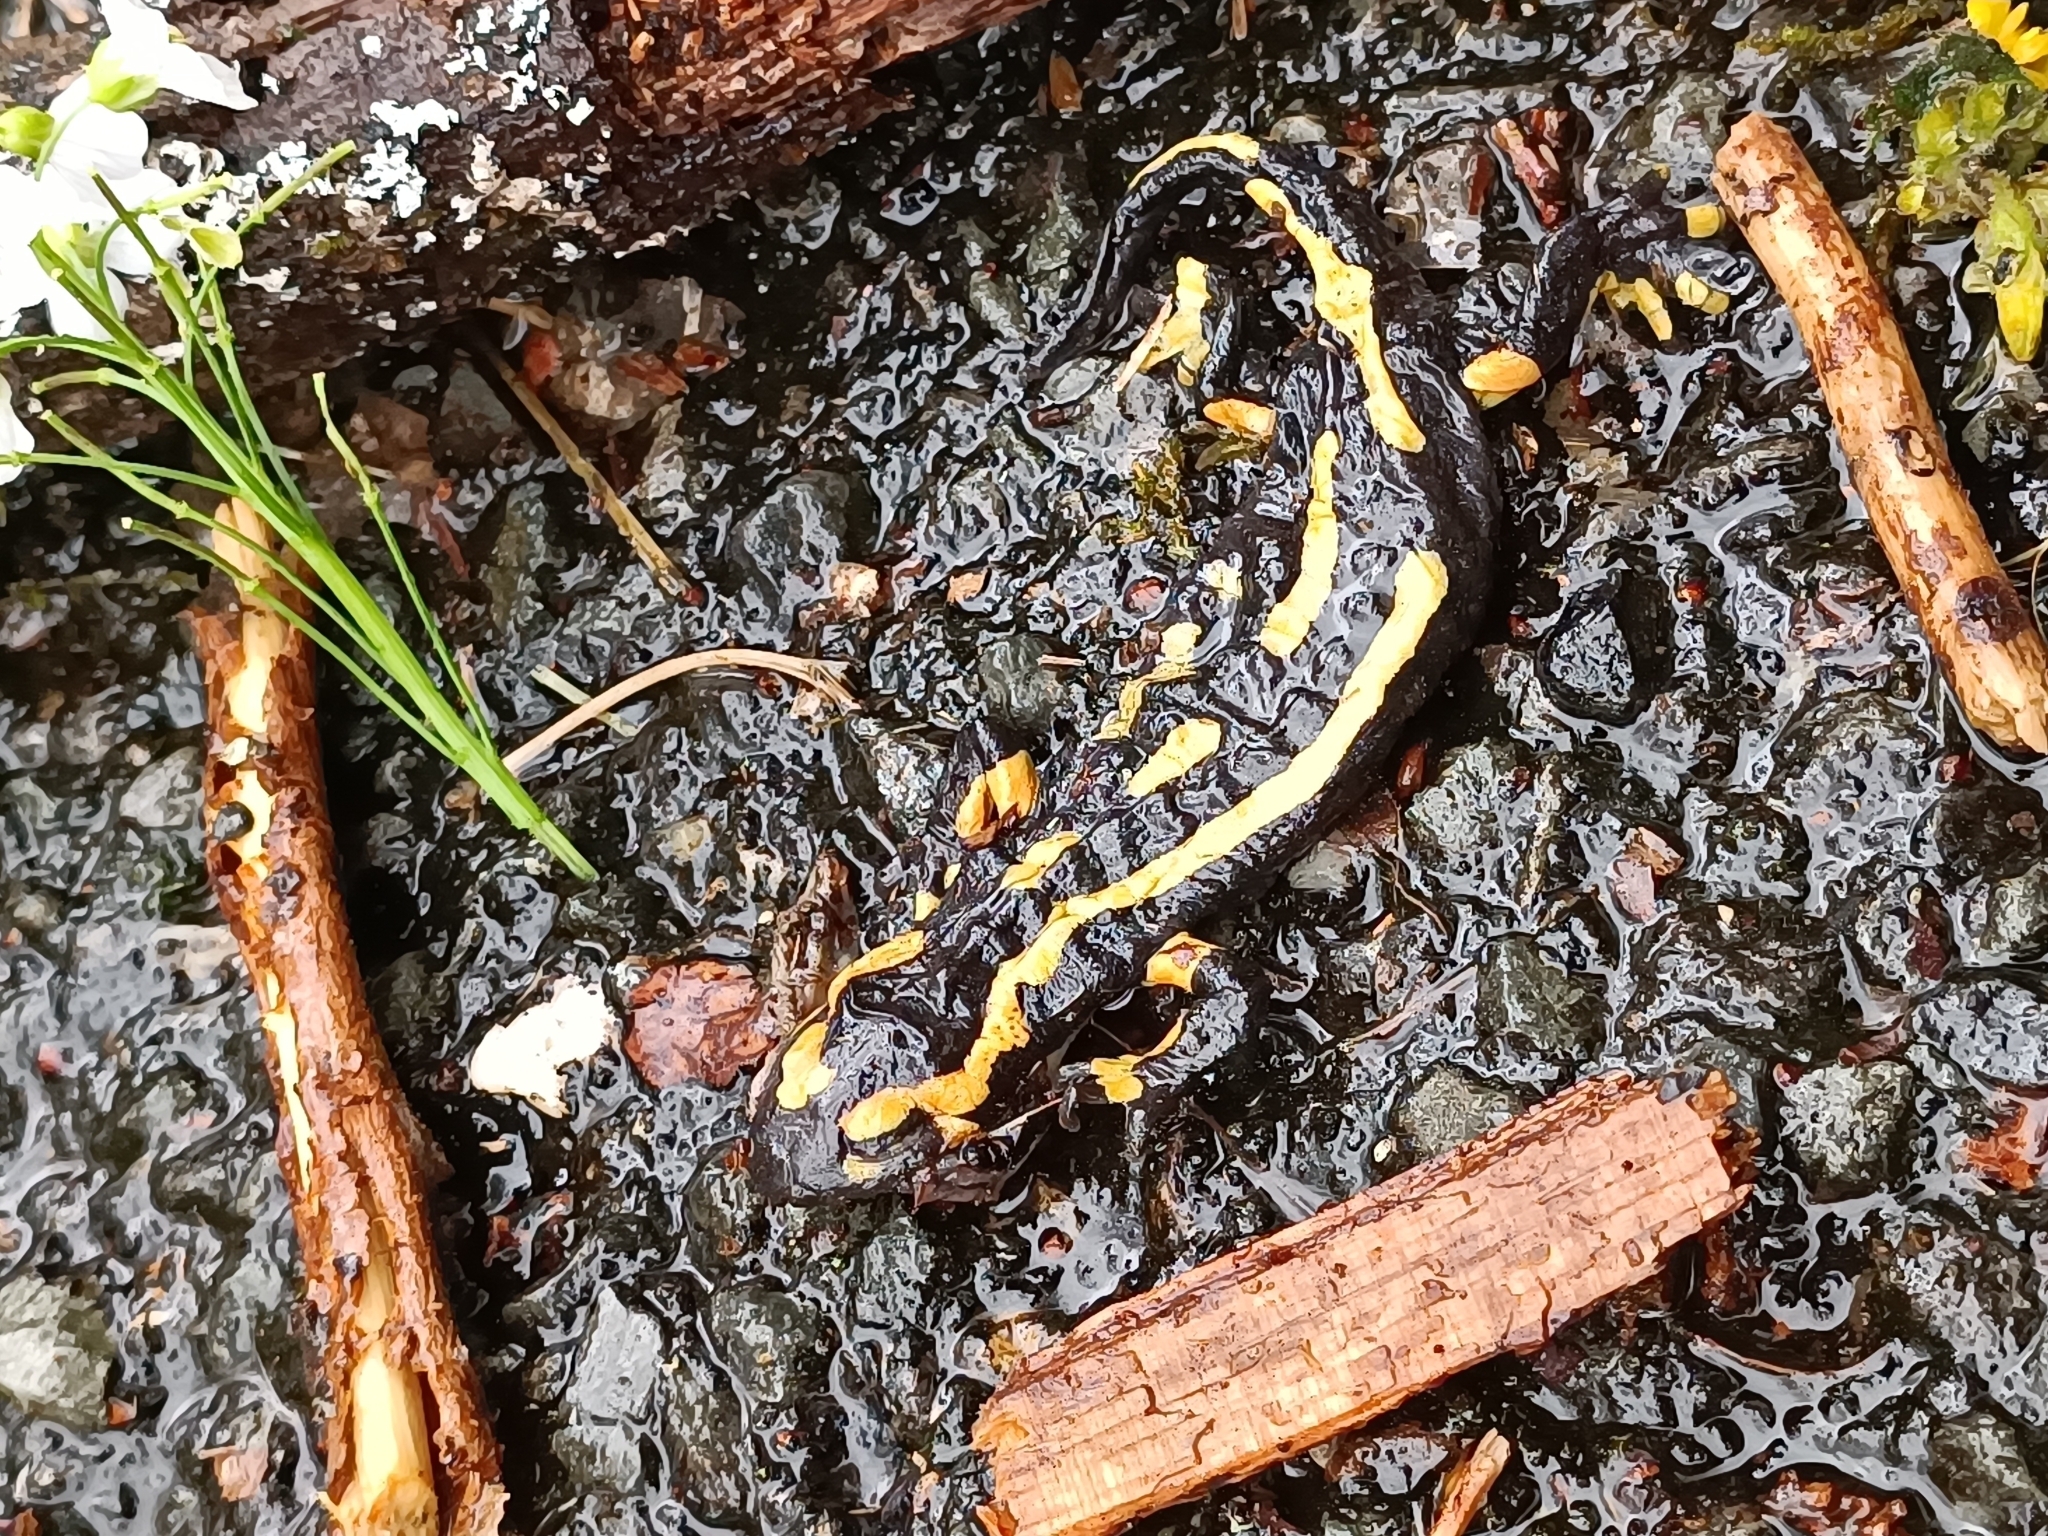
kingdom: Animalia
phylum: Chordata
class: Amphibia
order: Caudata
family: Salamandridae
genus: Salamandra
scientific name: Salamandra salamandra
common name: Fire salamander
